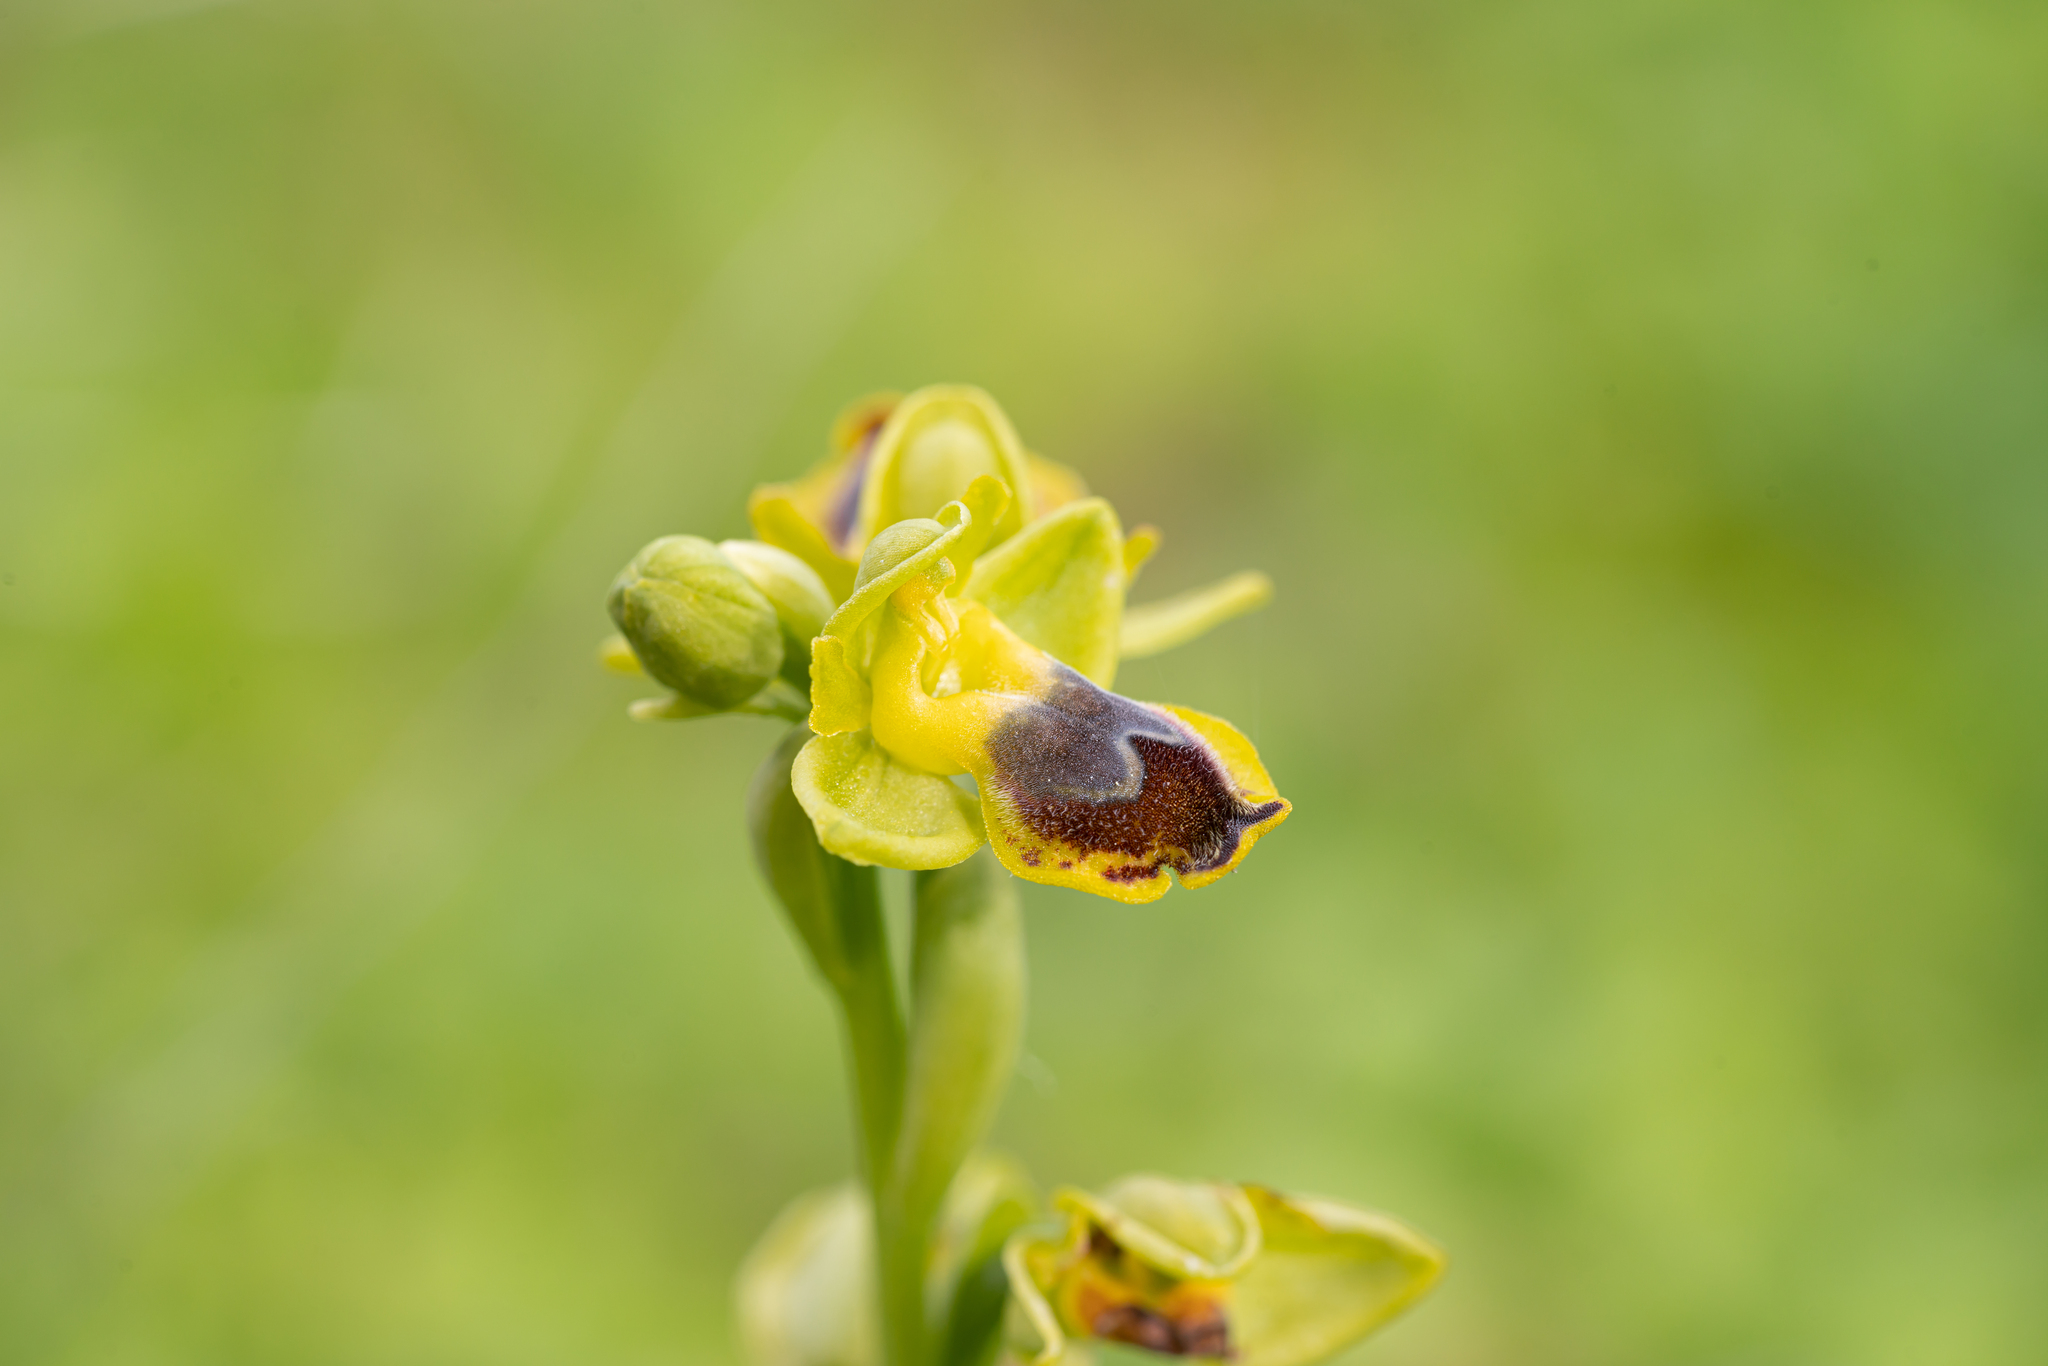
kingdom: Plantae
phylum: Tracheophyta
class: Liliopsida
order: Asparagales
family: Orchidaceae
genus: Ophrys
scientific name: Ophrys lutea
